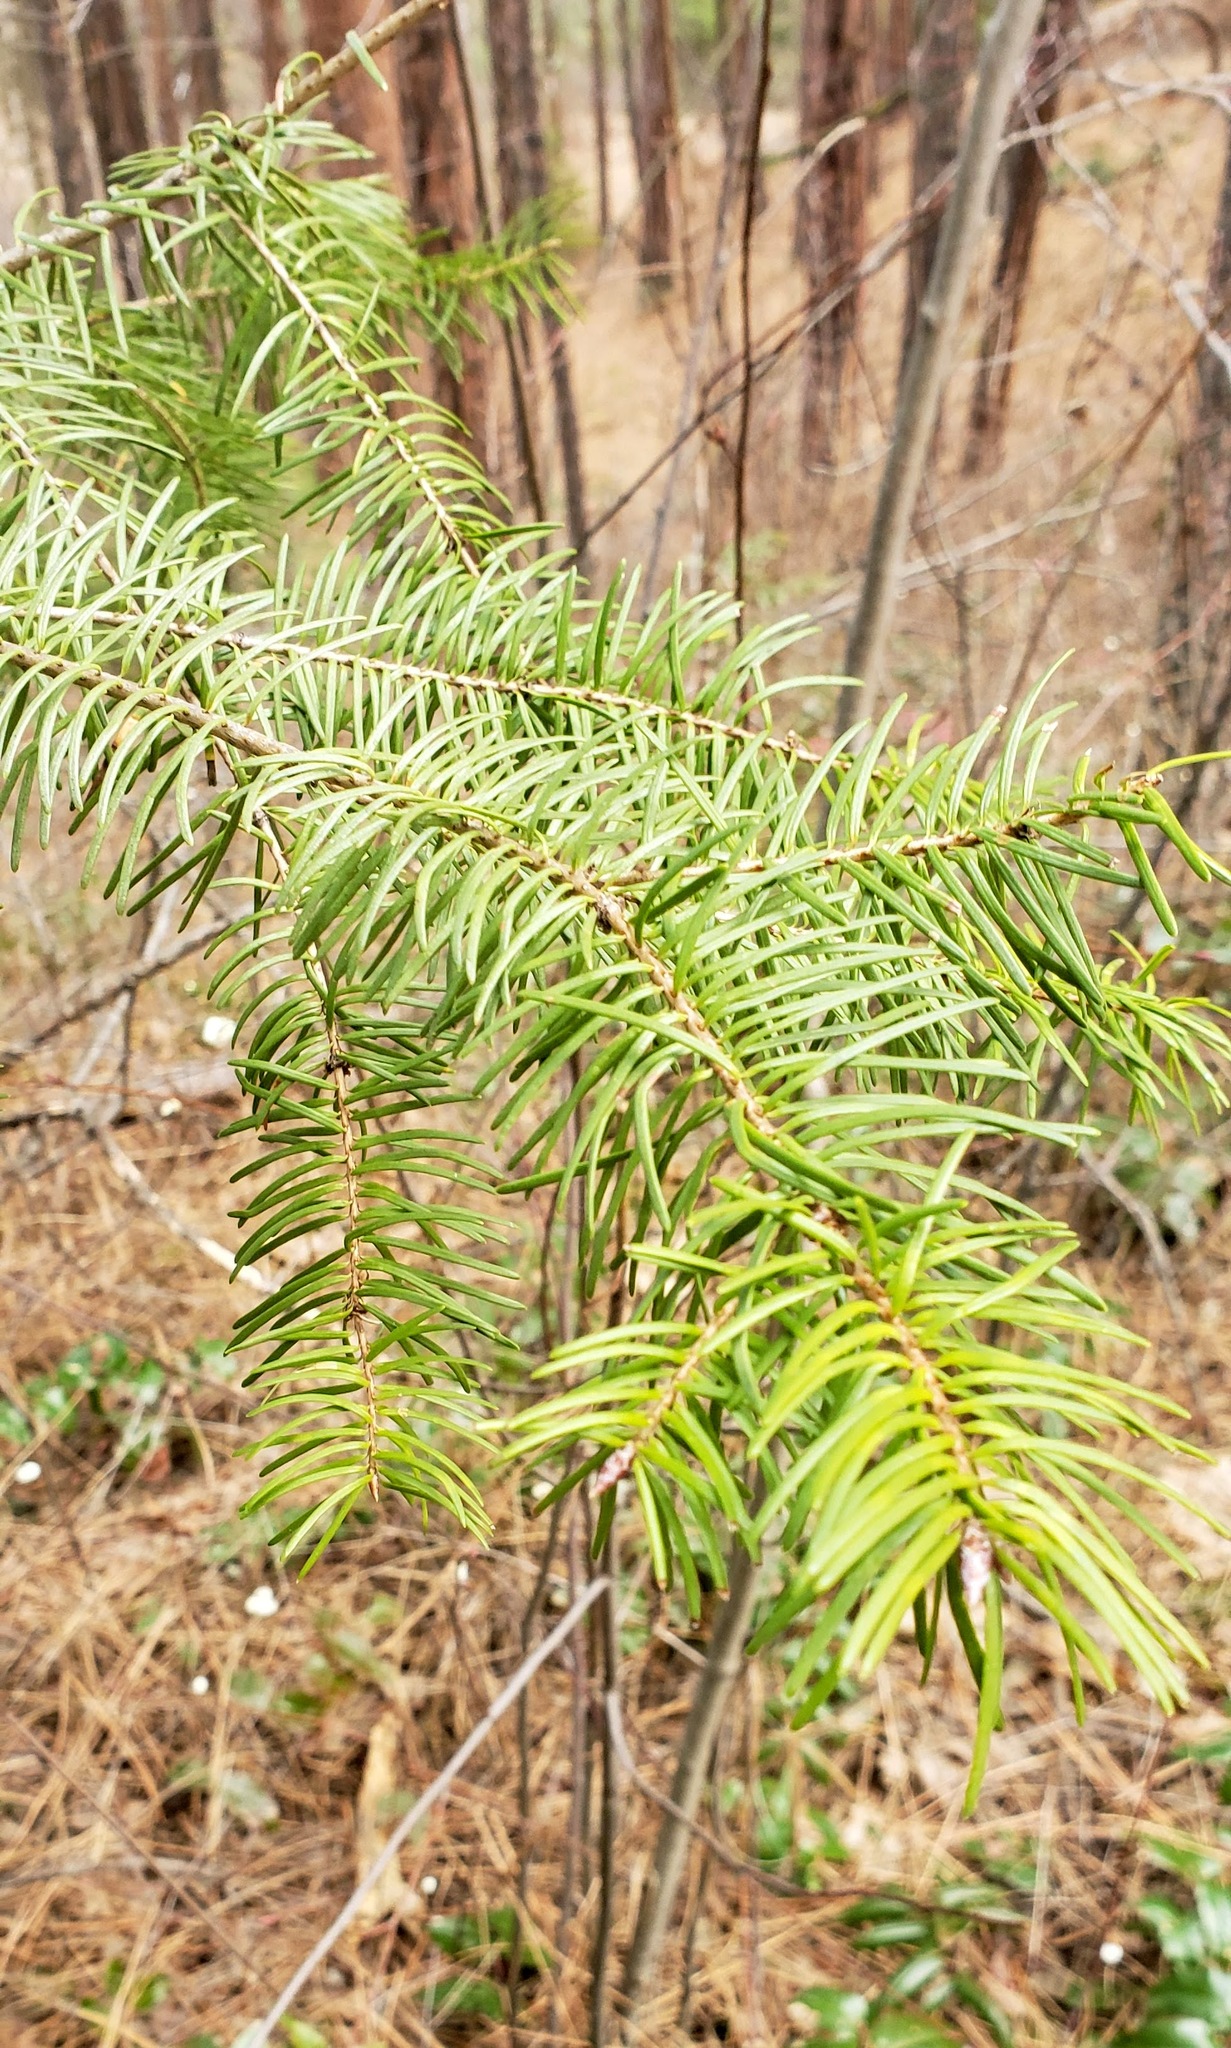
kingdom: Plantae
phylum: Tracheophyta
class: Pinopsida
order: Pinales
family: Pinaceae
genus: Pseudotsuga
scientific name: Pseudotsuga menziesii
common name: Douglas fir
